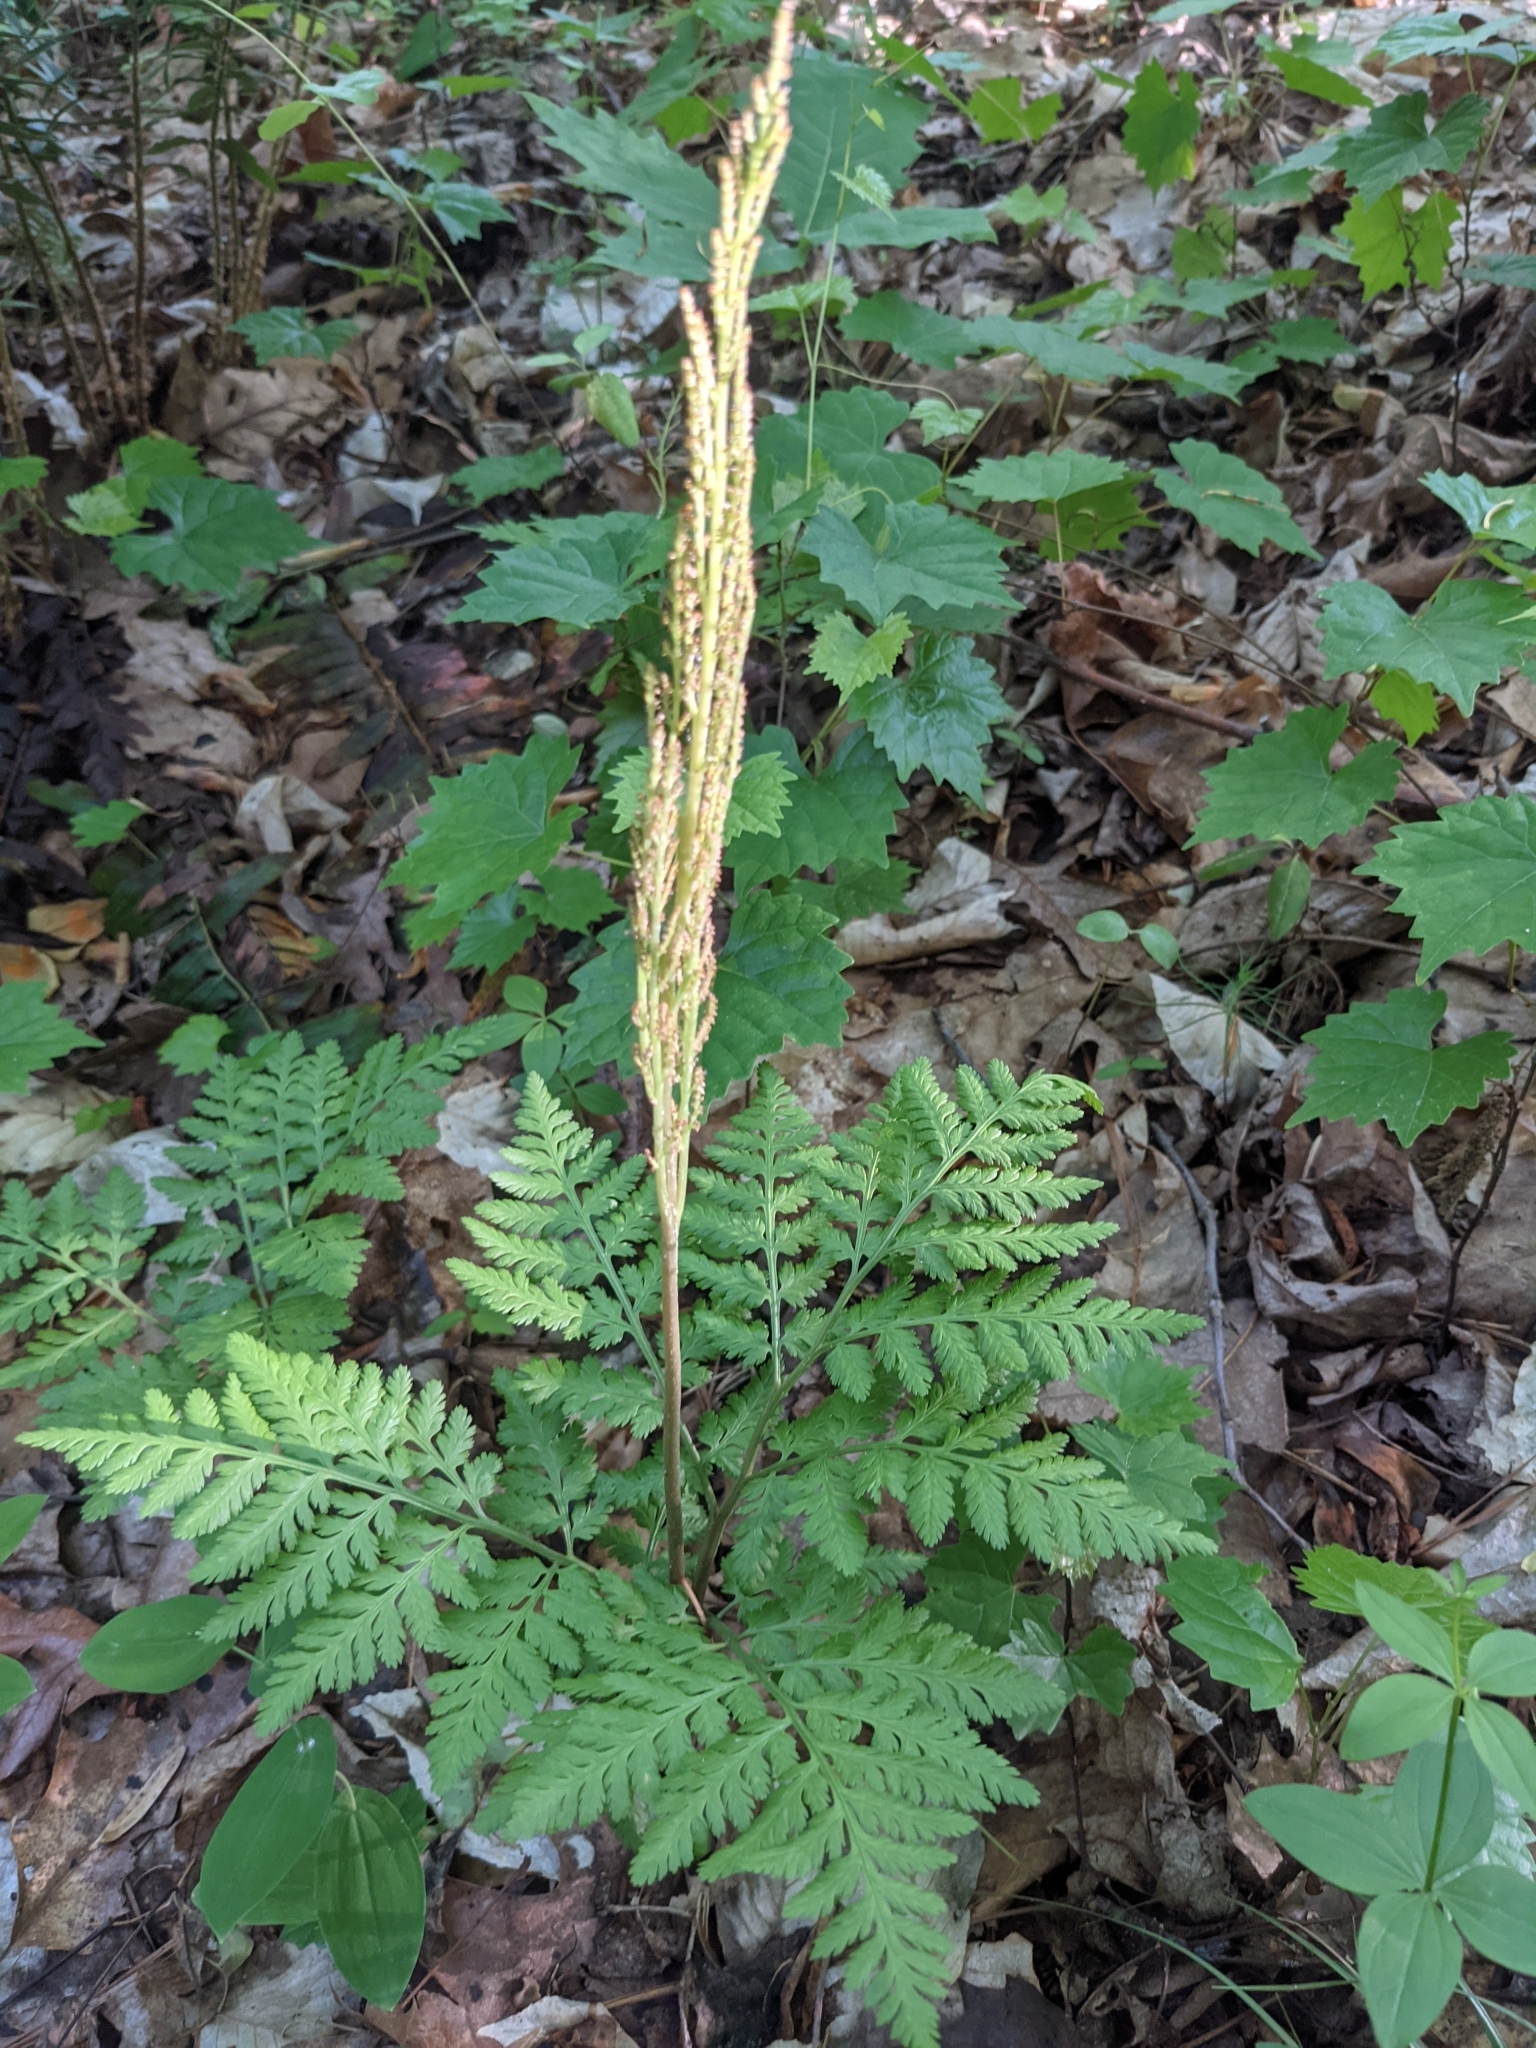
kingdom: Plantae
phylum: Tracheophyta
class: Polypodiopsida
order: Ophioglossales
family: Ophioglossaceae
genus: Botrypus
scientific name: Botrypus virginianus
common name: Common grapefern
